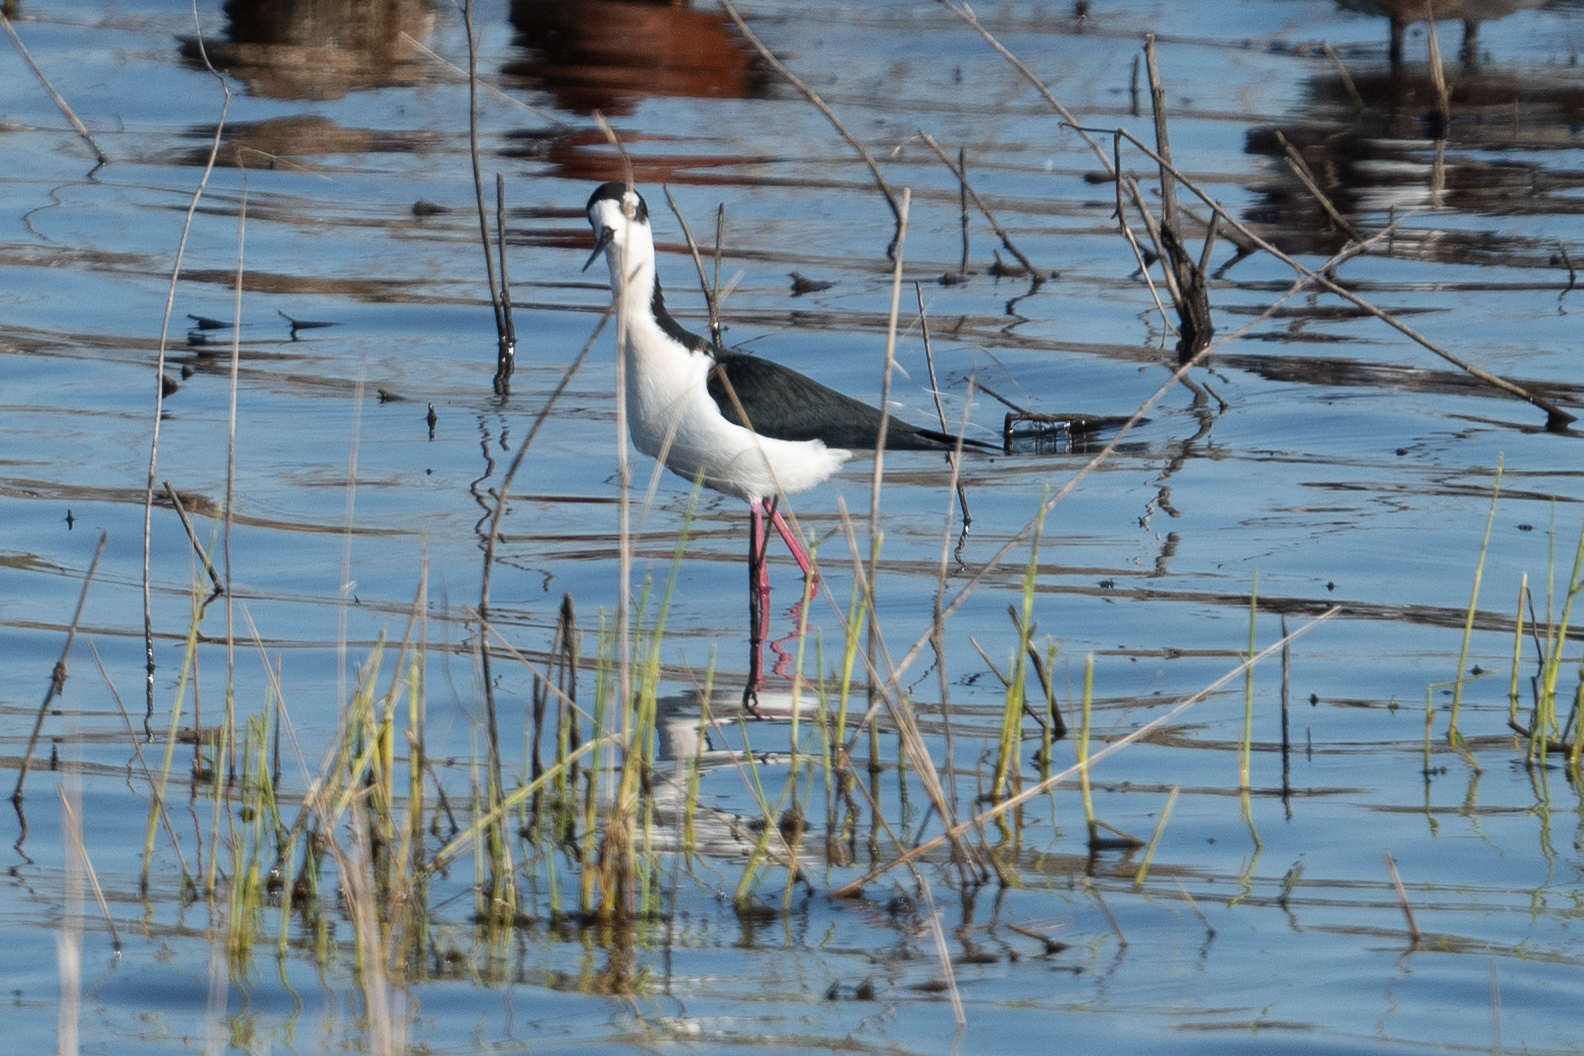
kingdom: Animalia
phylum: Chordata
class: Aves
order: Charadriiformes
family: Recurvirostridae
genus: Himantopus
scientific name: Himantopus mexicanus
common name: Black-necked stilt
